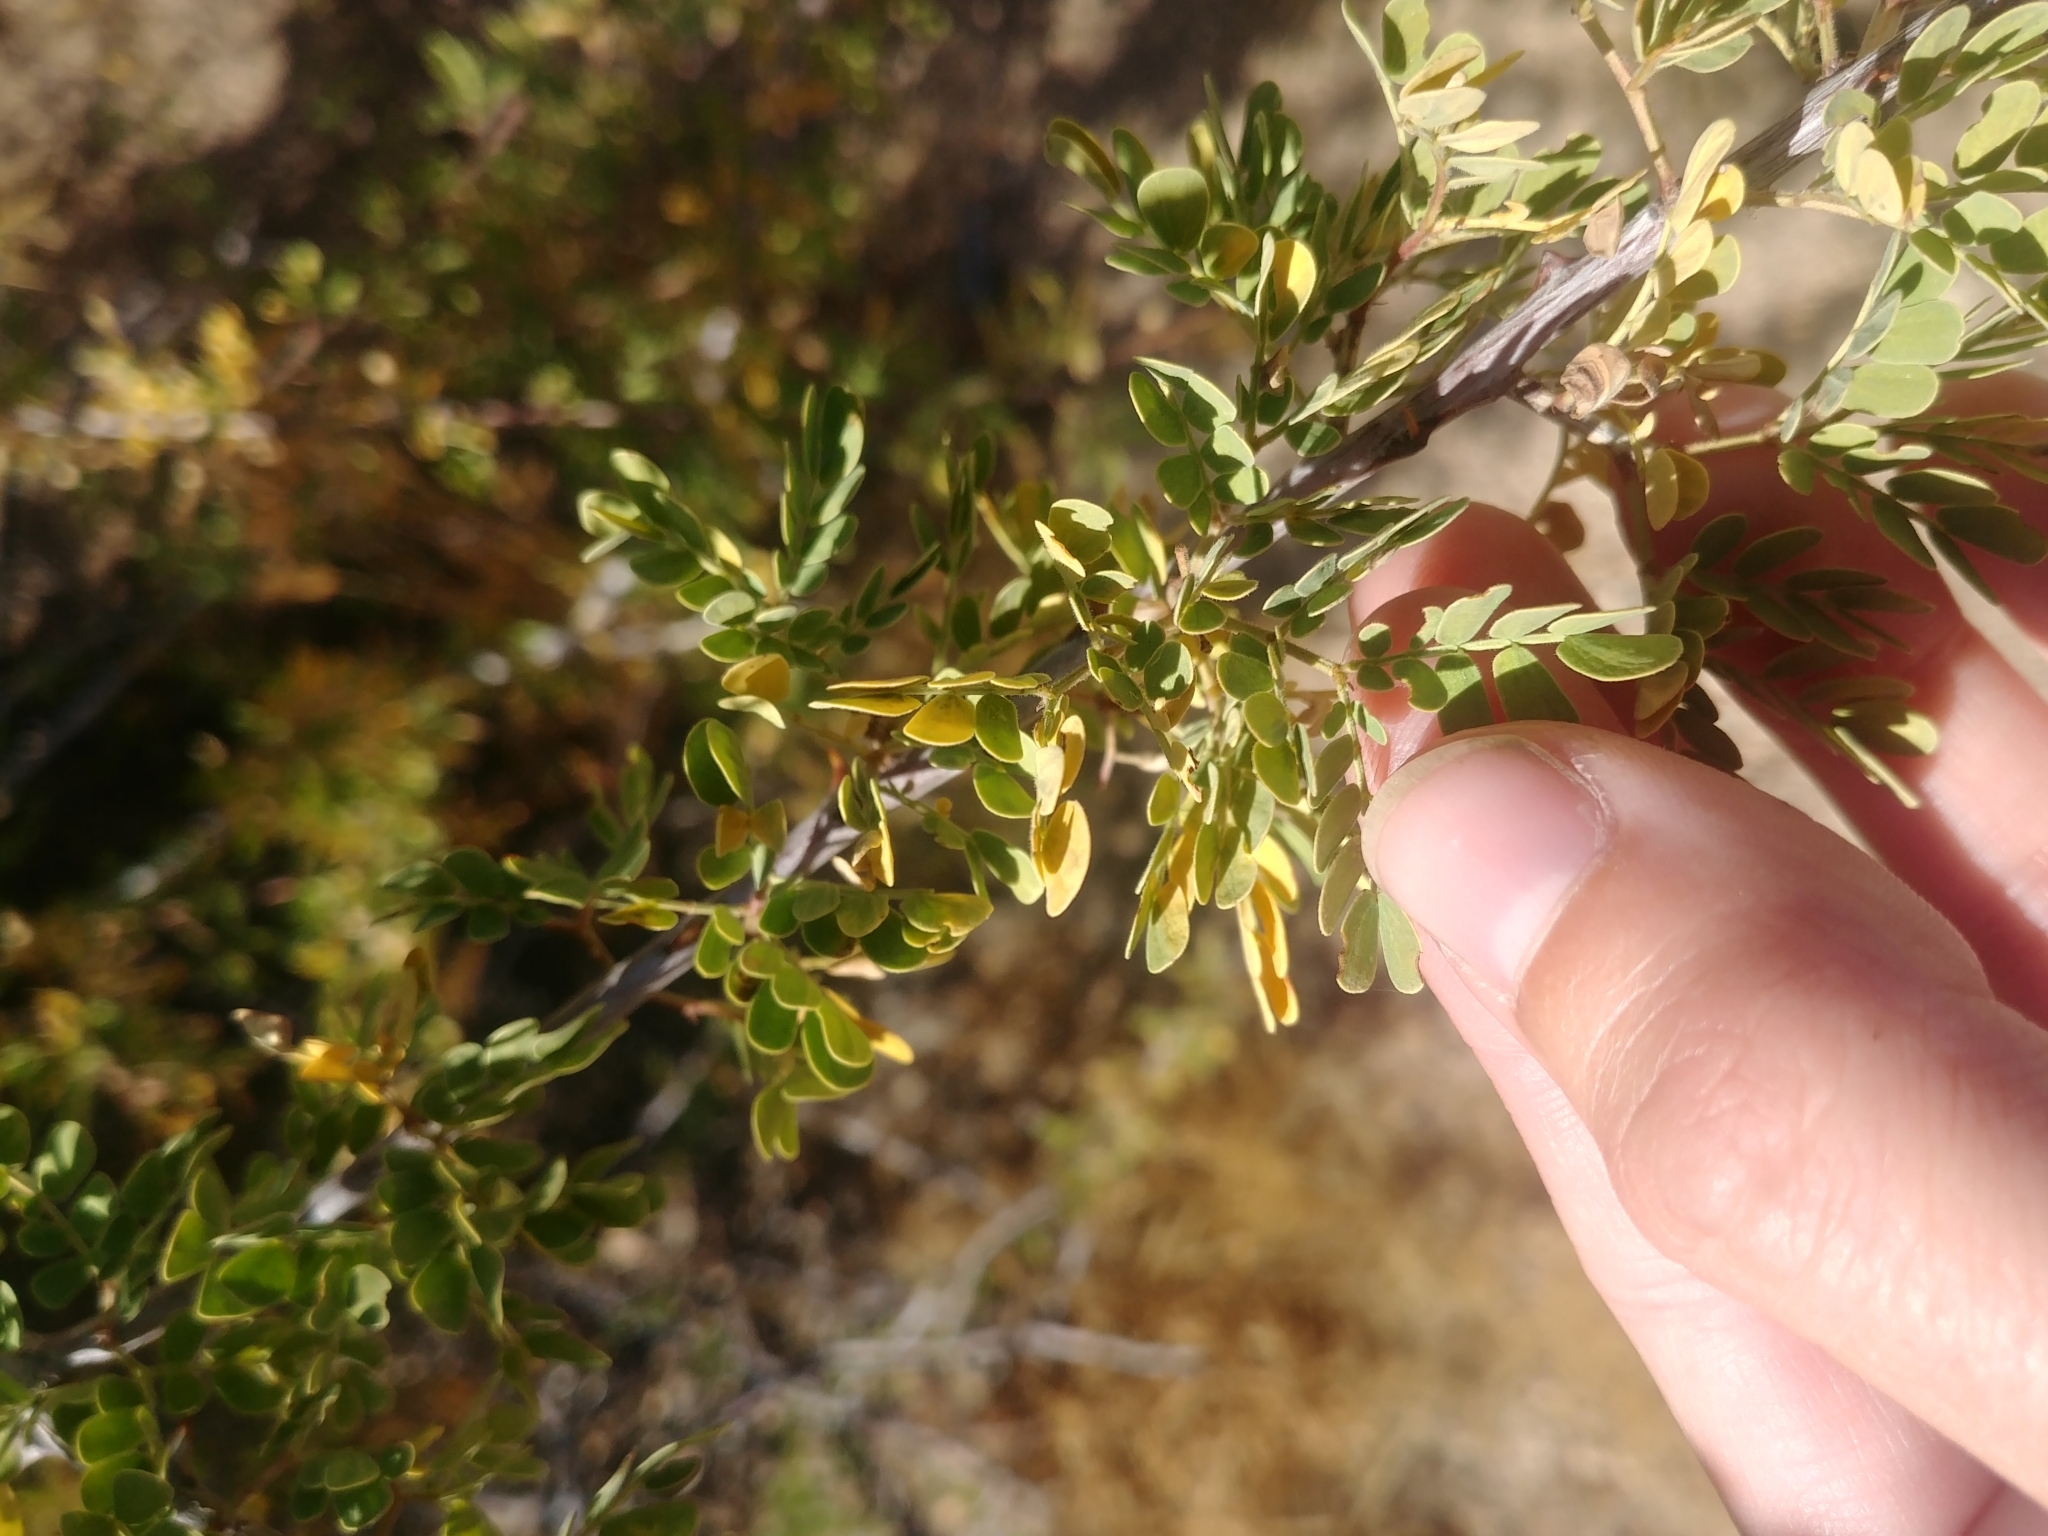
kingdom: Plantae
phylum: Tracheophyta
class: Magnoliopsida
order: Fabales
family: Fabaceae
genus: Senegalia
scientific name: Senegalia greggii
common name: Texas-mimosa
